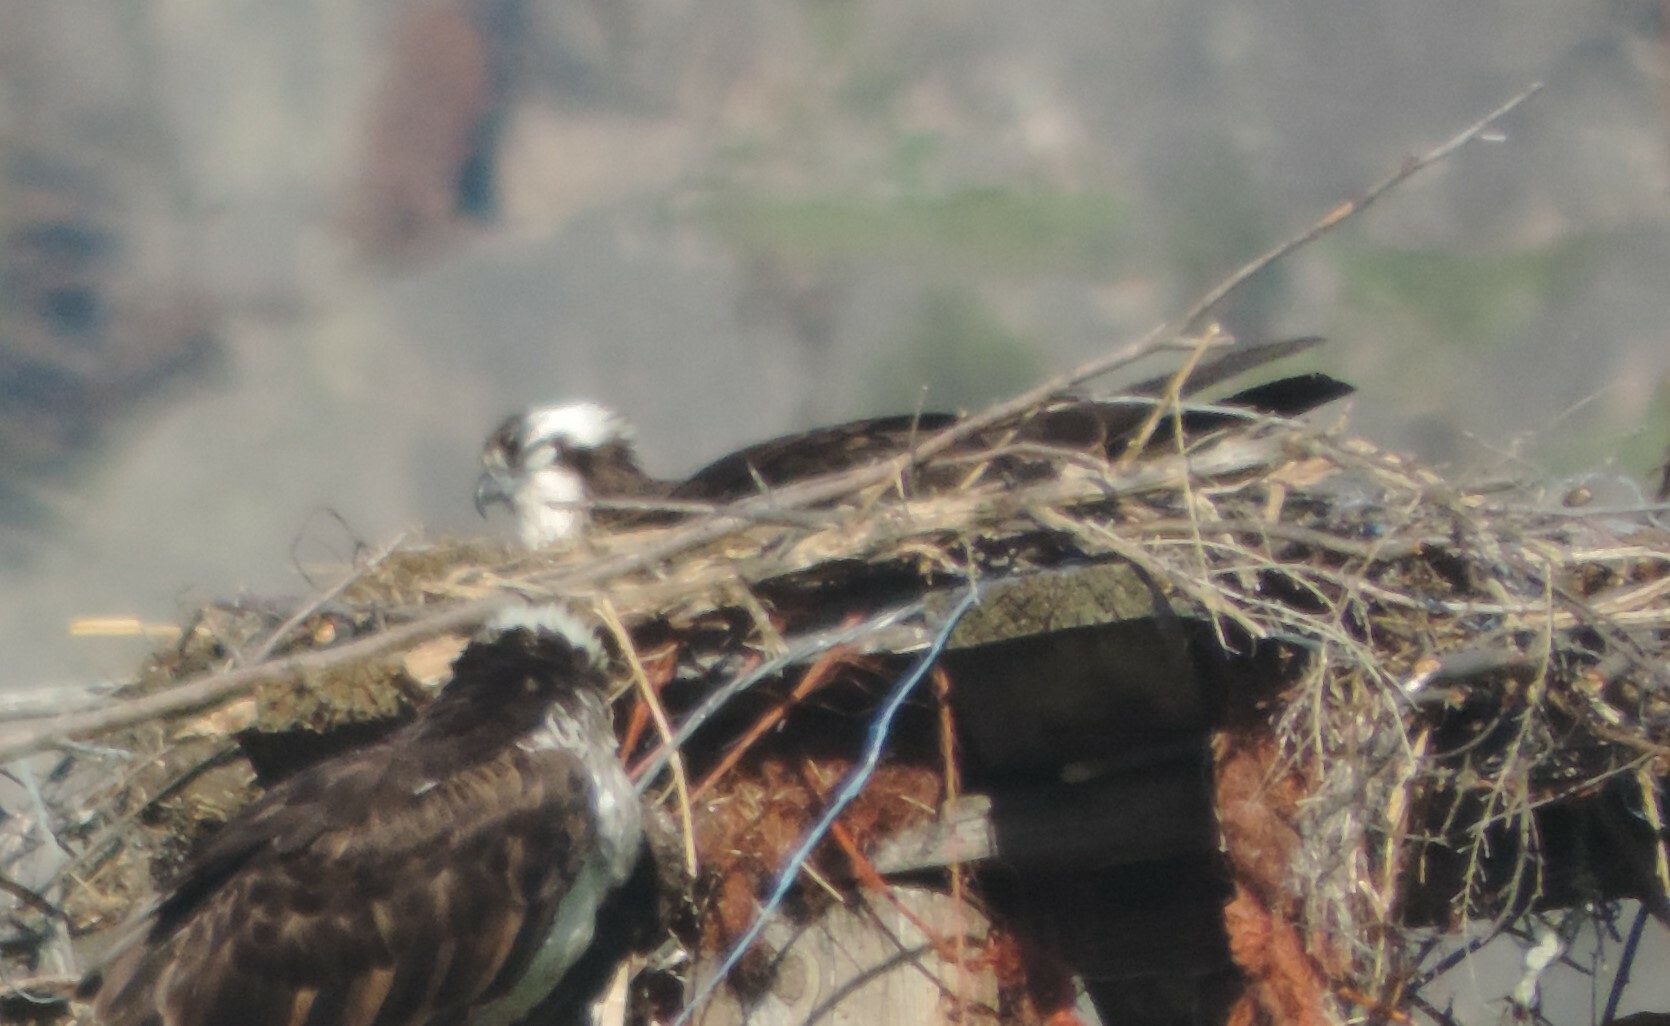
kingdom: Animalia
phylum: Chordata
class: Aves
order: Accipitriformes
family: Pandionidae
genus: Pandion
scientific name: Pandion haliaetus
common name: Osprey
